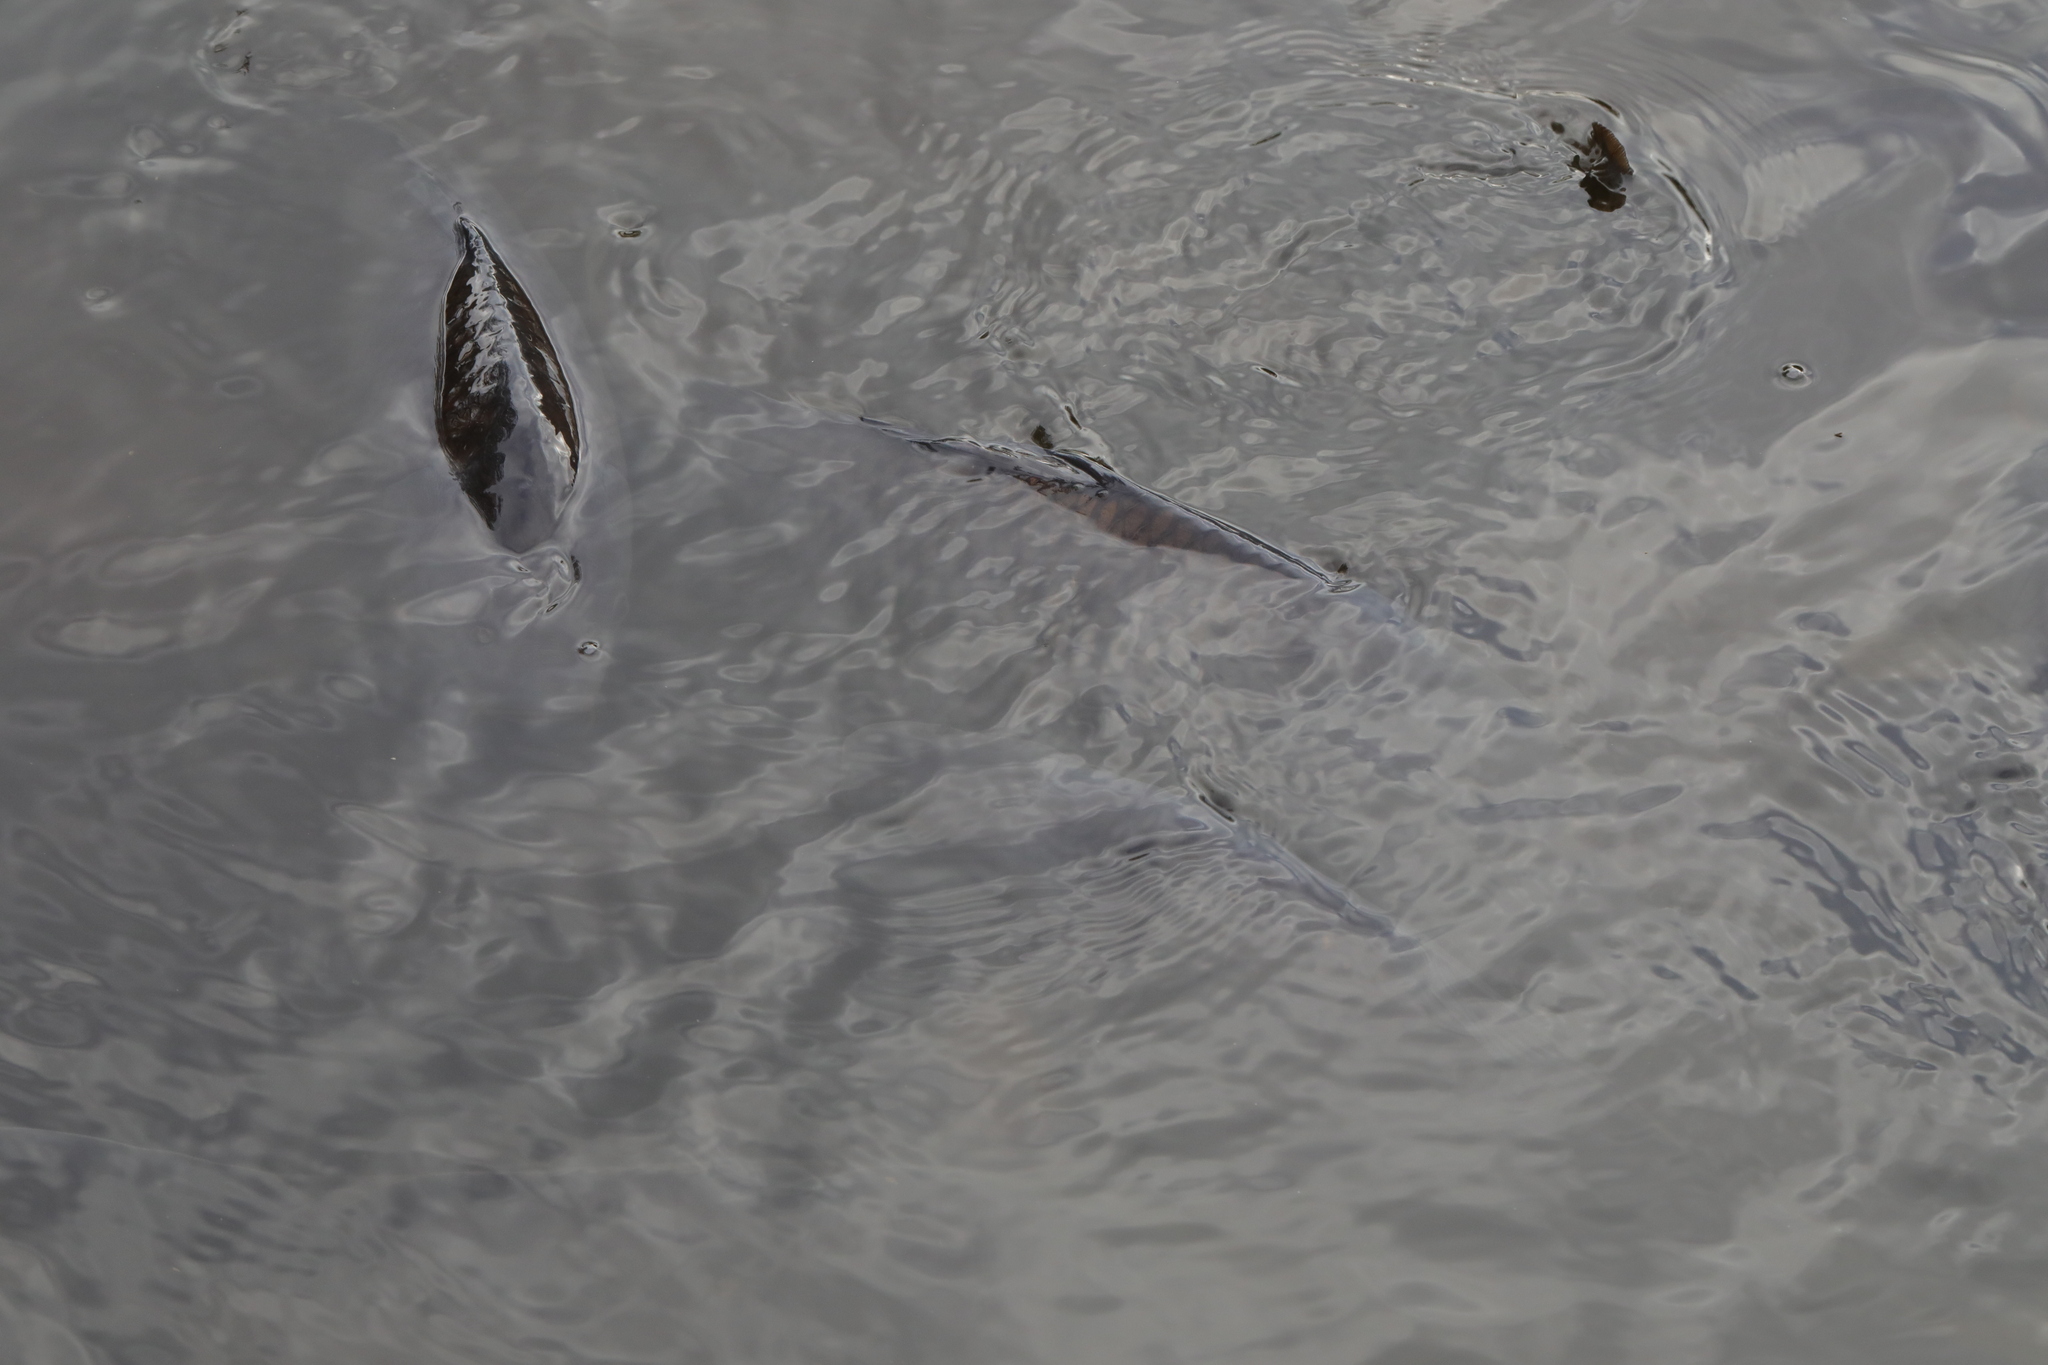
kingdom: Animalia
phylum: Chordata
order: Cypriniformes
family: Cyprinidae
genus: Cyprinus
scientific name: Cyprinus carpio
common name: Common carp
